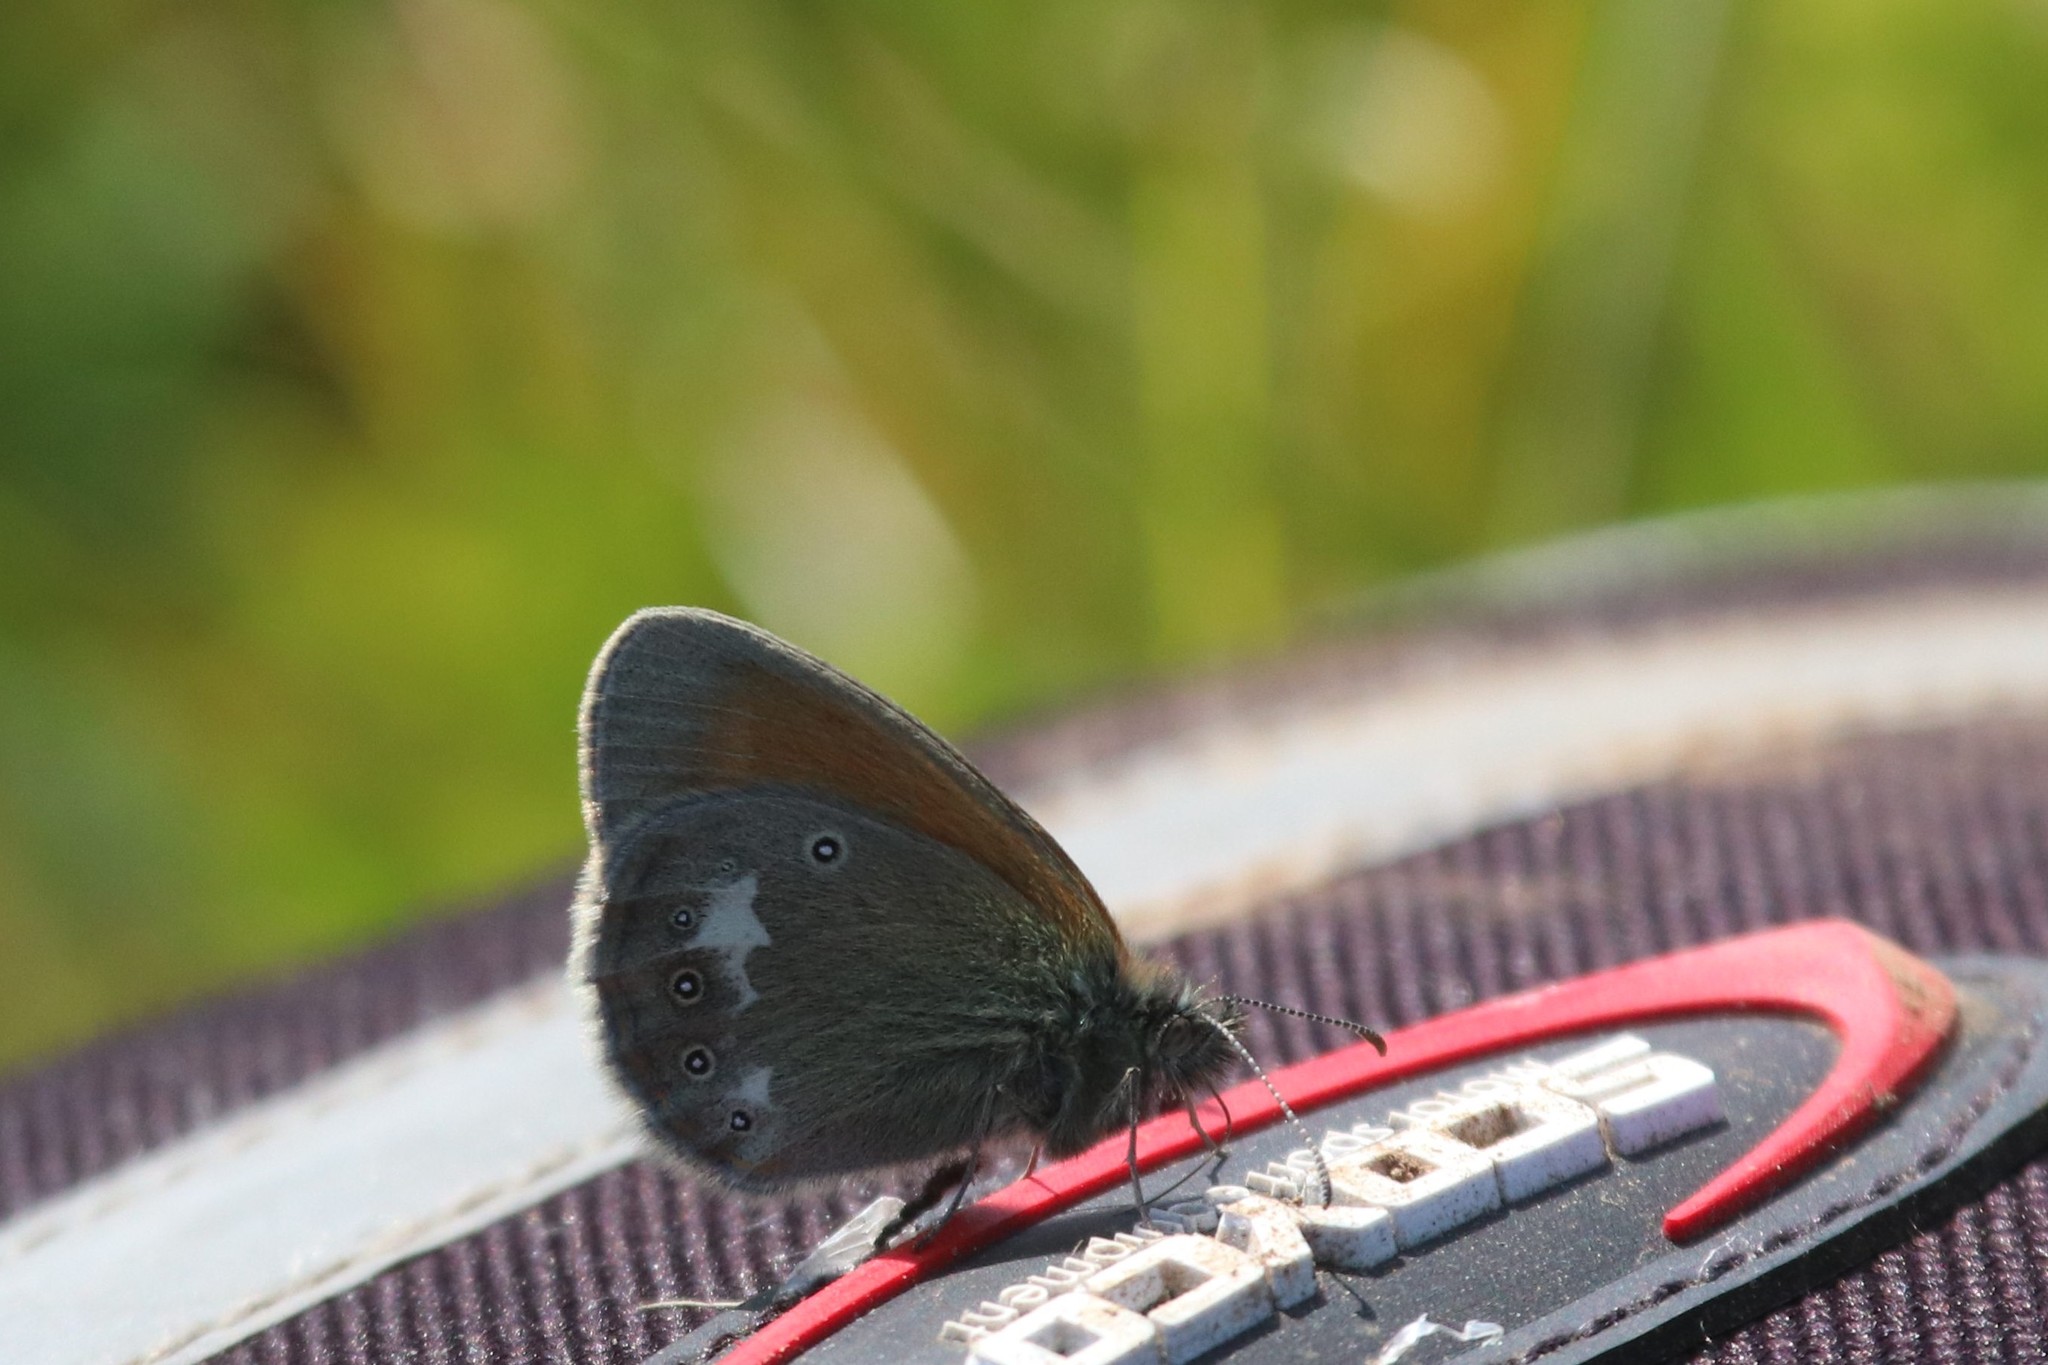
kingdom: Animalia
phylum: Arthropoda
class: Insecta
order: Lepidoptera
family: Nymphalidae
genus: Coenonympha
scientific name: Coenonympha iphis
